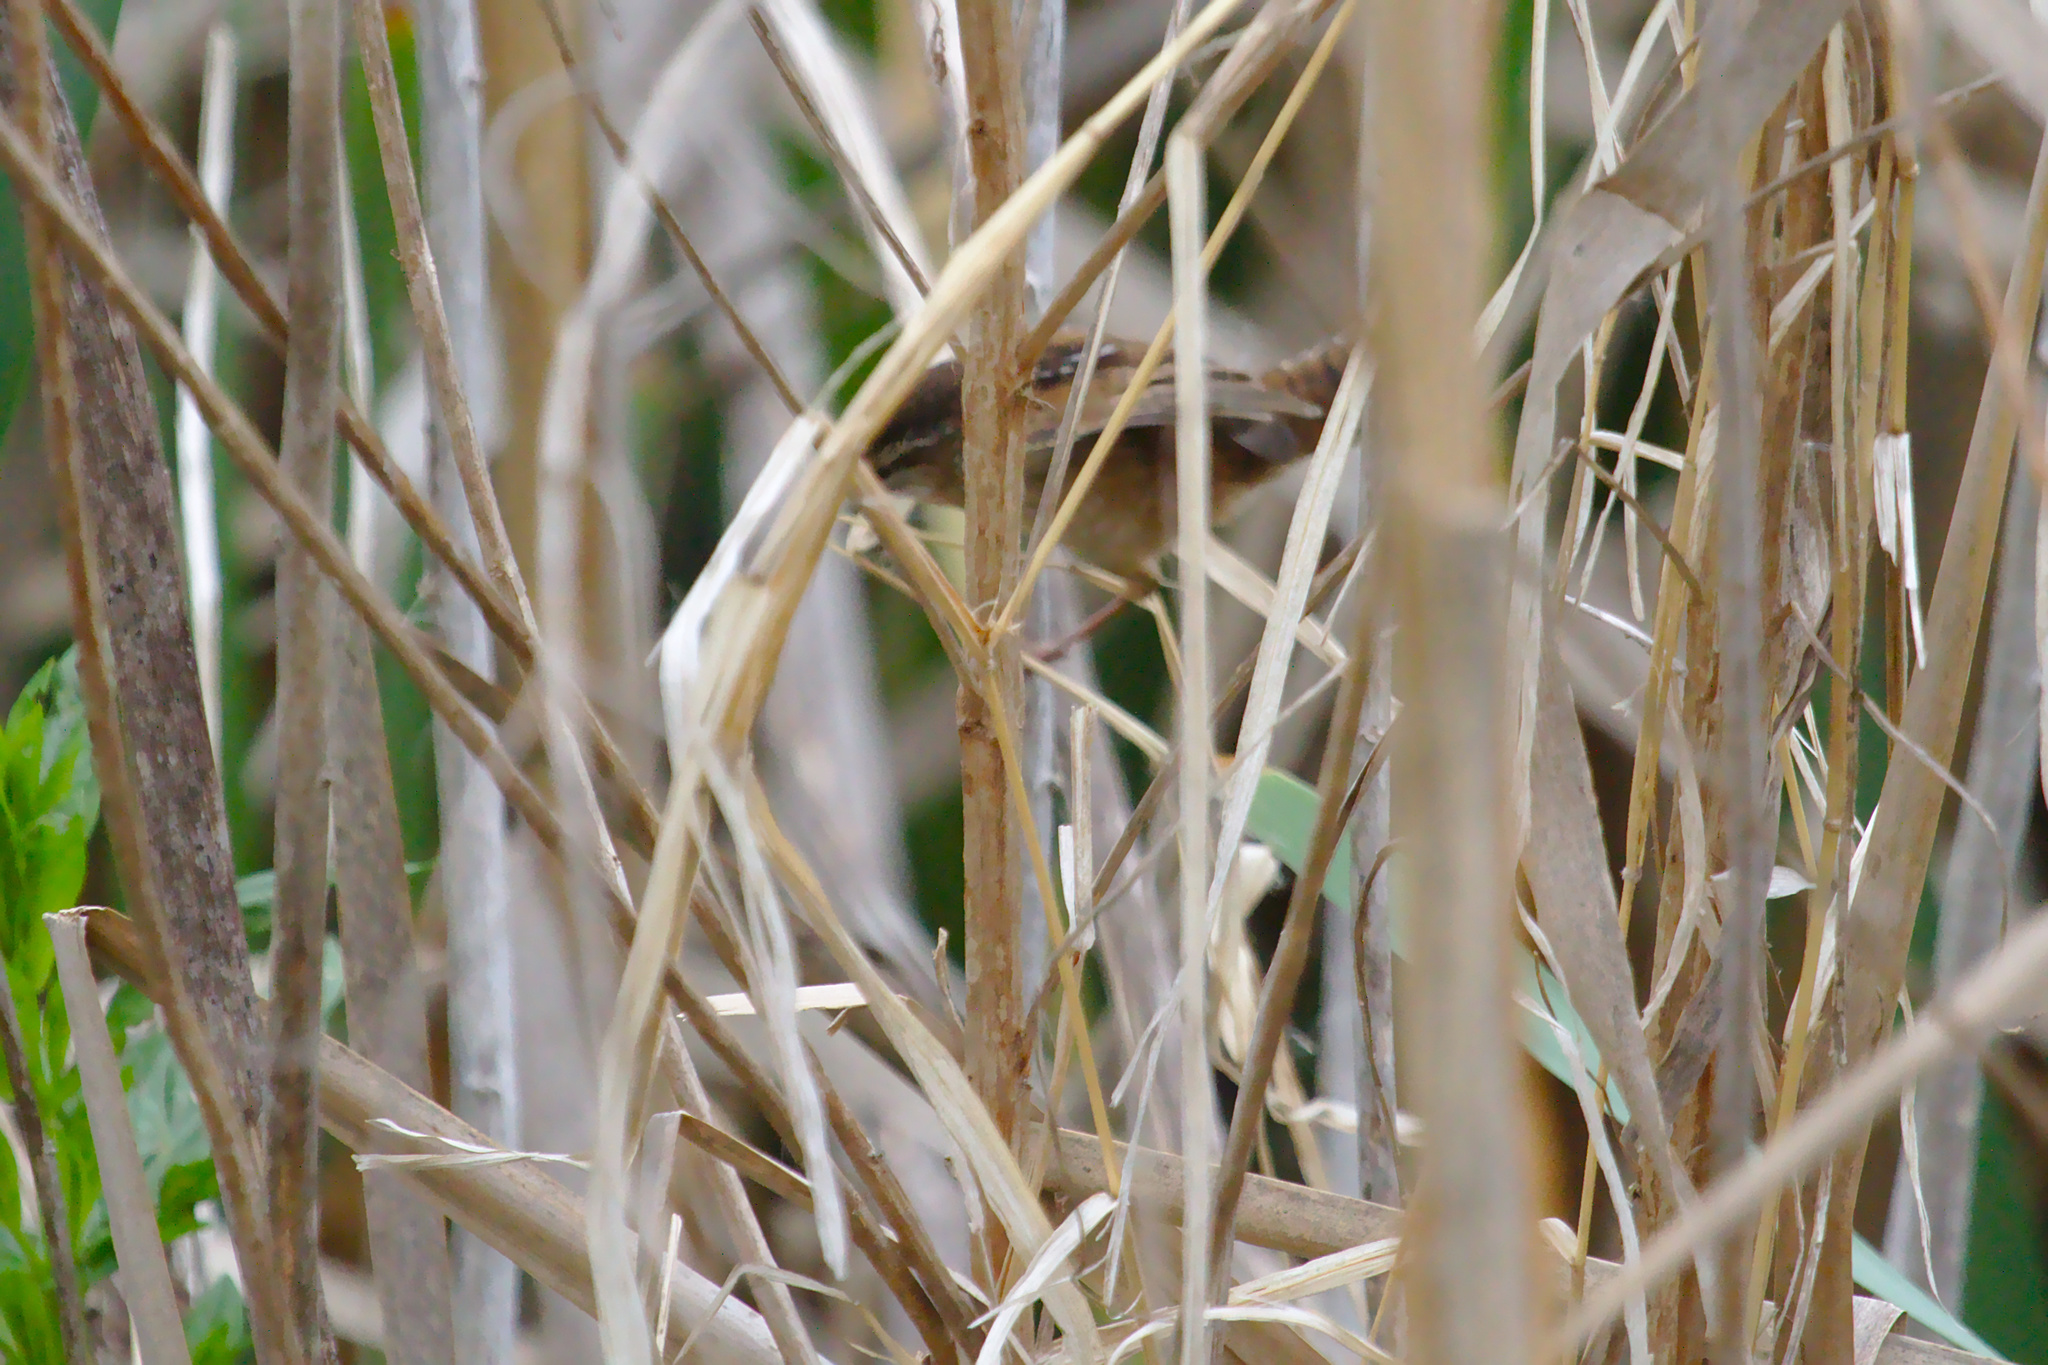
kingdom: Animalia
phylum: Chordata
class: Aves
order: Passeriformes
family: Troglodytidae
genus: Cistothorus
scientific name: Cistothorus palustris
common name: Marsh wren
